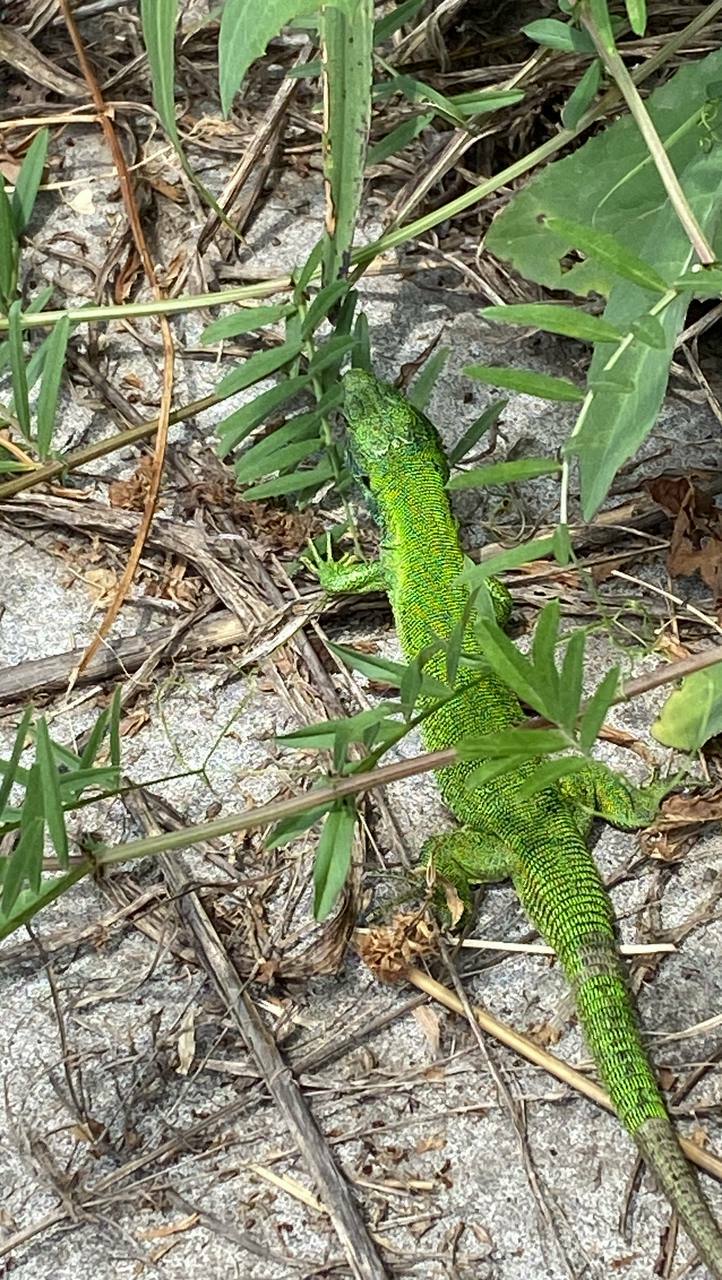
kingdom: Animalia
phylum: Chordata
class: Squamata
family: Lacertidae
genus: Lacerta
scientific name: Lacerta agilis
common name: Sand lizard
